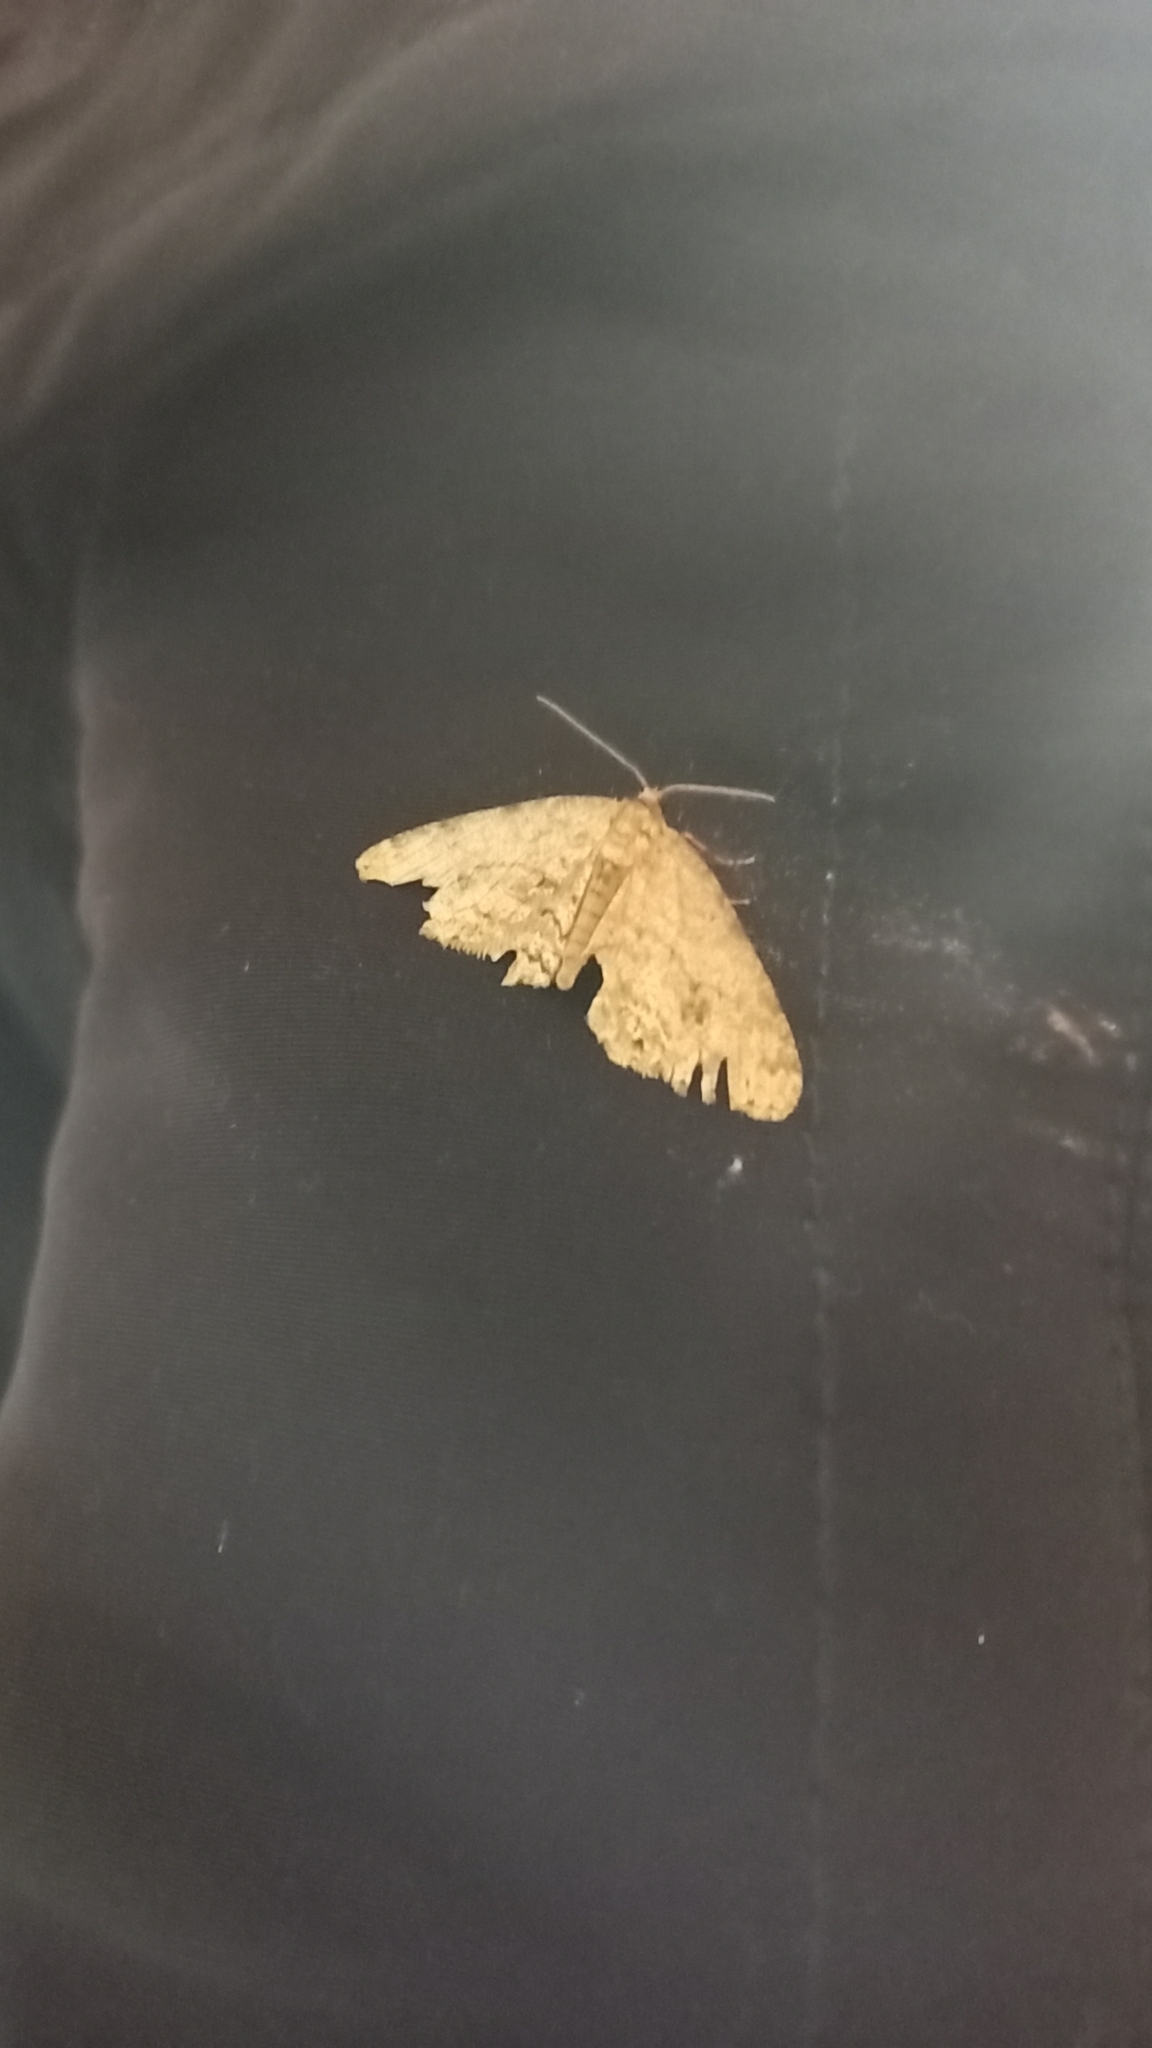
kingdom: Animalia
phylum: Arthropoda
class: Insecta
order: Lepidoptera
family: Geometridae
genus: Ectropis
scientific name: Ectropis crepuscularia
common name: Engrailed
